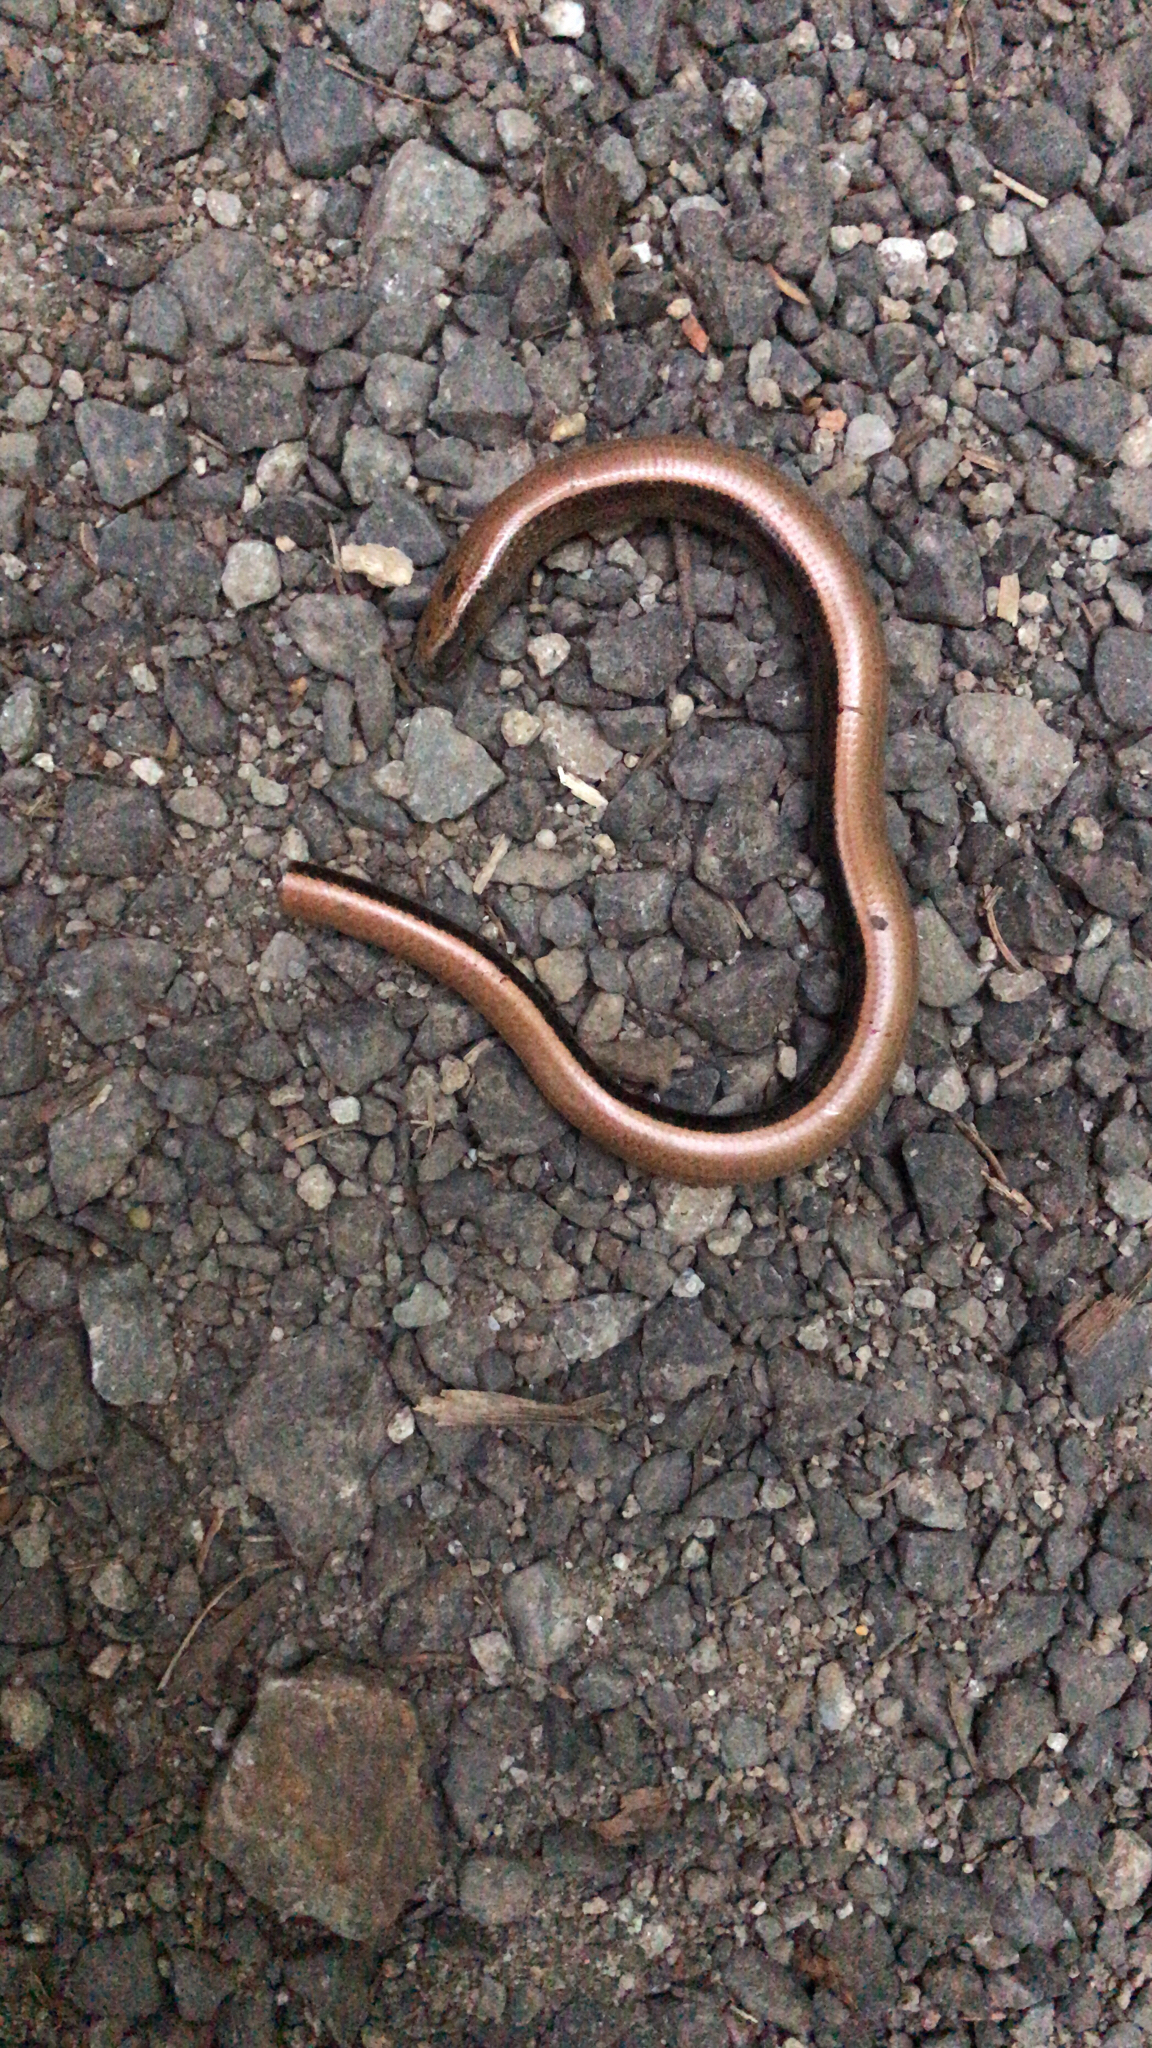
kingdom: Animalia
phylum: Chordata
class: Squamata
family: Anguidae
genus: Anguis
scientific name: Anguis fragilis
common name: Slow worm
